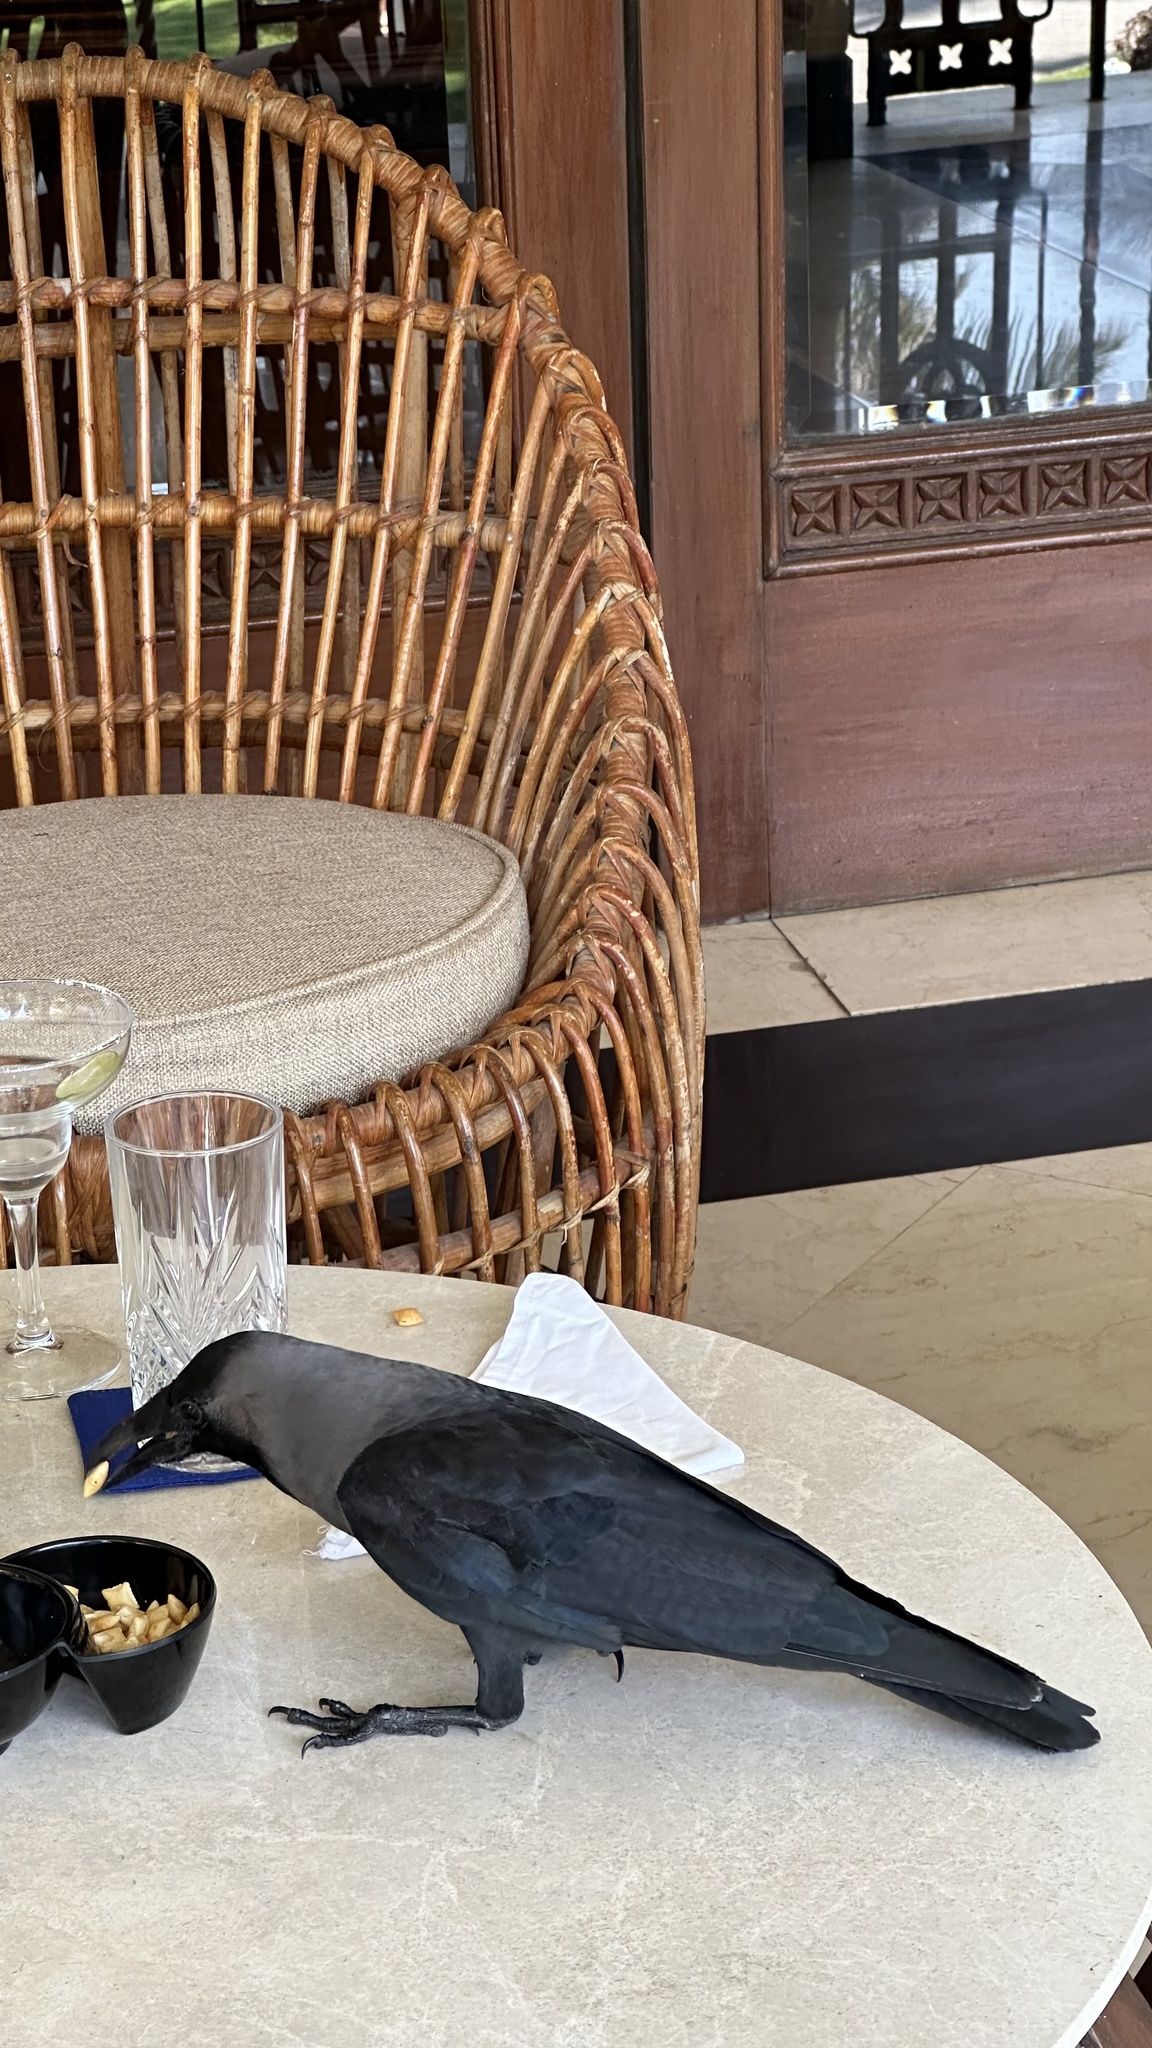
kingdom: Animalia
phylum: Chordata
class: Aves
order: Passeriformes
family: Corvidae
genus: Corvus
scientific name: Corvus splendens
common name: House crow
